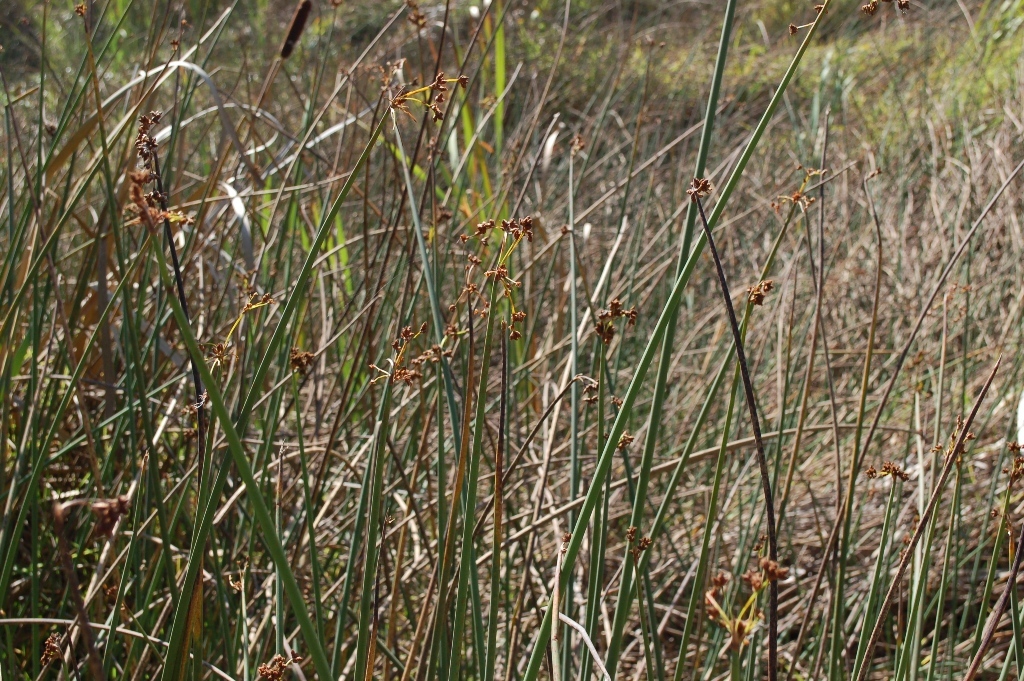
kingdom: Plantae
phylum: Tracheophyta
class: Liliopsida
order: Poales
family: Cyperaceae
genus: Schoenoplectus
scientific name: Schoenoplectus acutus
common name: Hardstem bulrush
